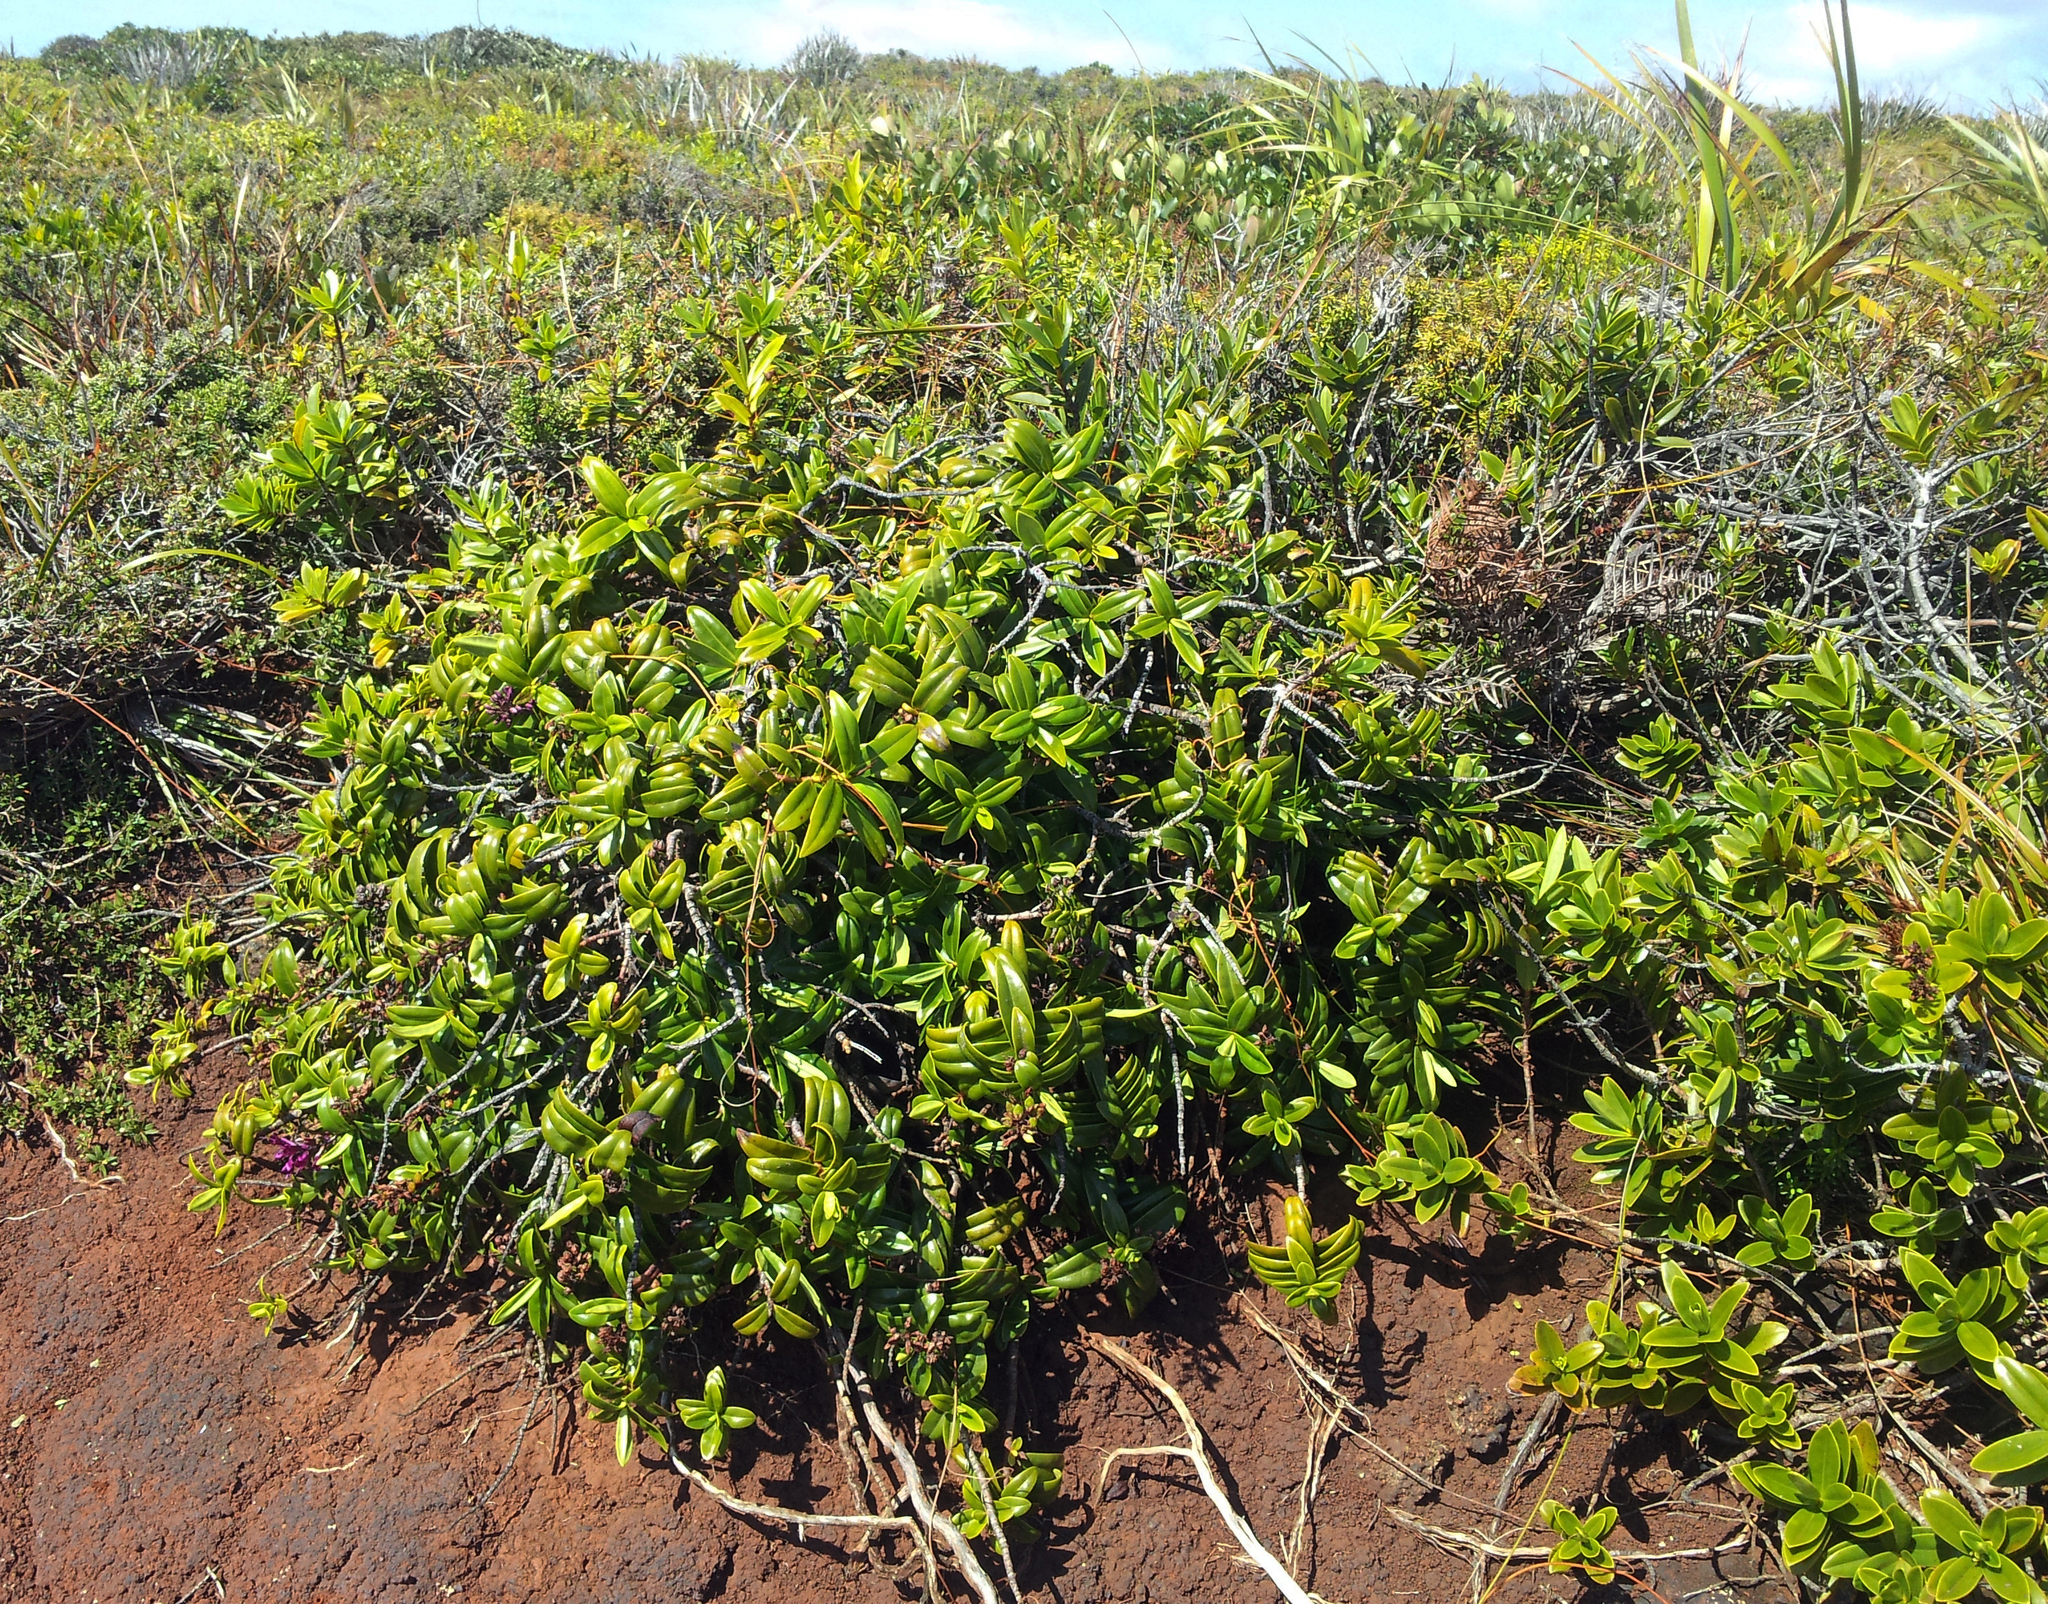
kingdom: Plantae
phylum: Tracheophyta
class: Magnoliopsida
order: Lamiales
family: Plantaginaceae
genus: Veronica
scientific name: Veronica punicea
